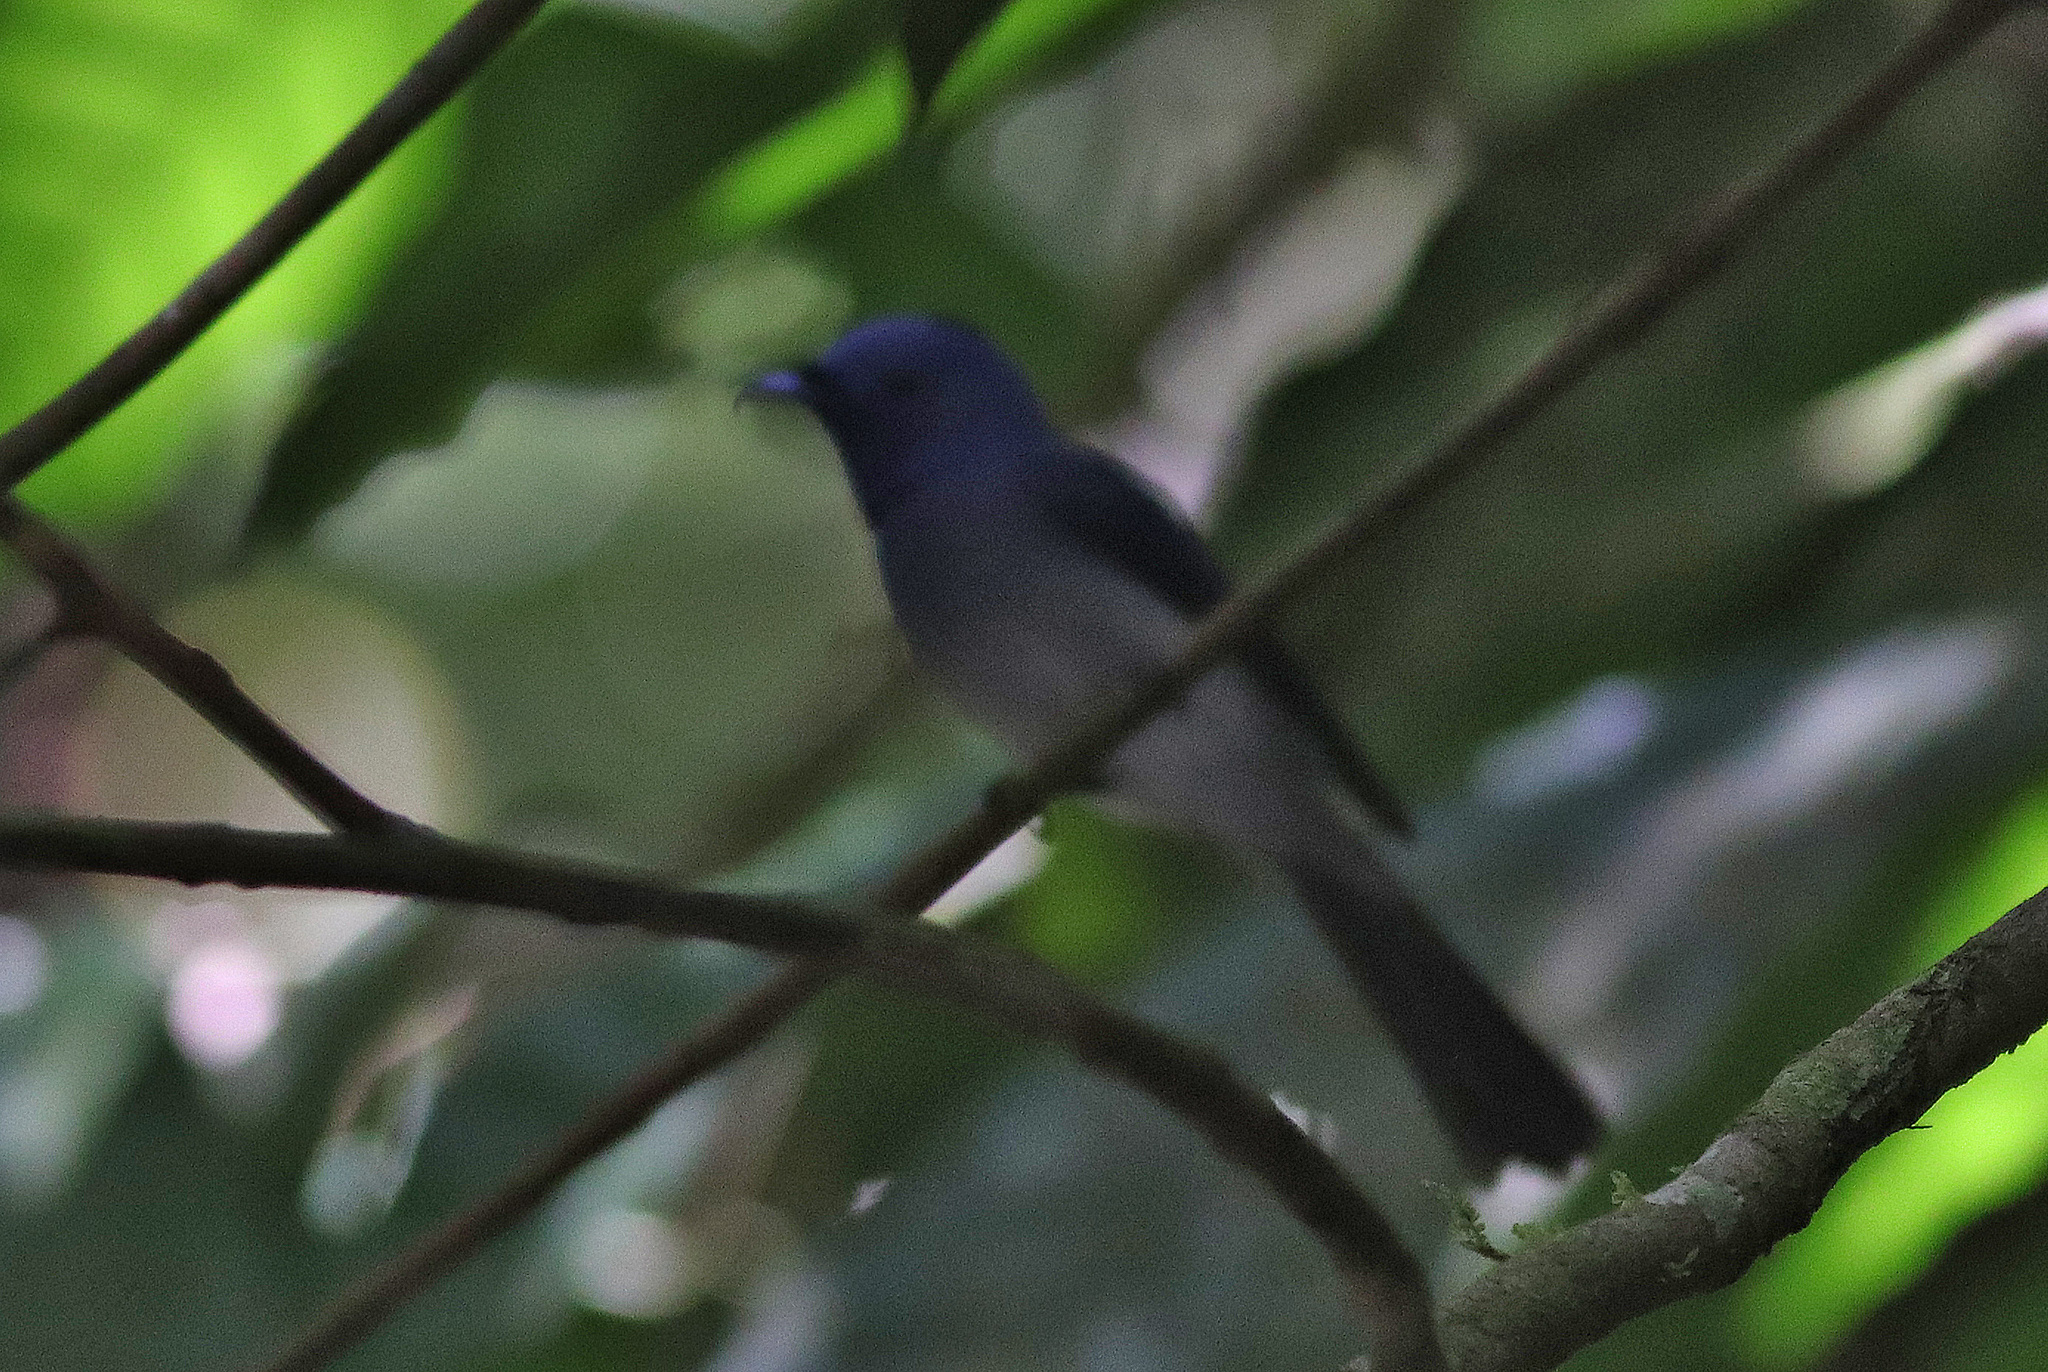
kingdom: Animalia
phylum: Chordata
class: Aves
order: Passeriformes
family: Monarchidae
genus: Hypothymis
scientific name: Hypothymis azurea
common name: Black-naped monarch
